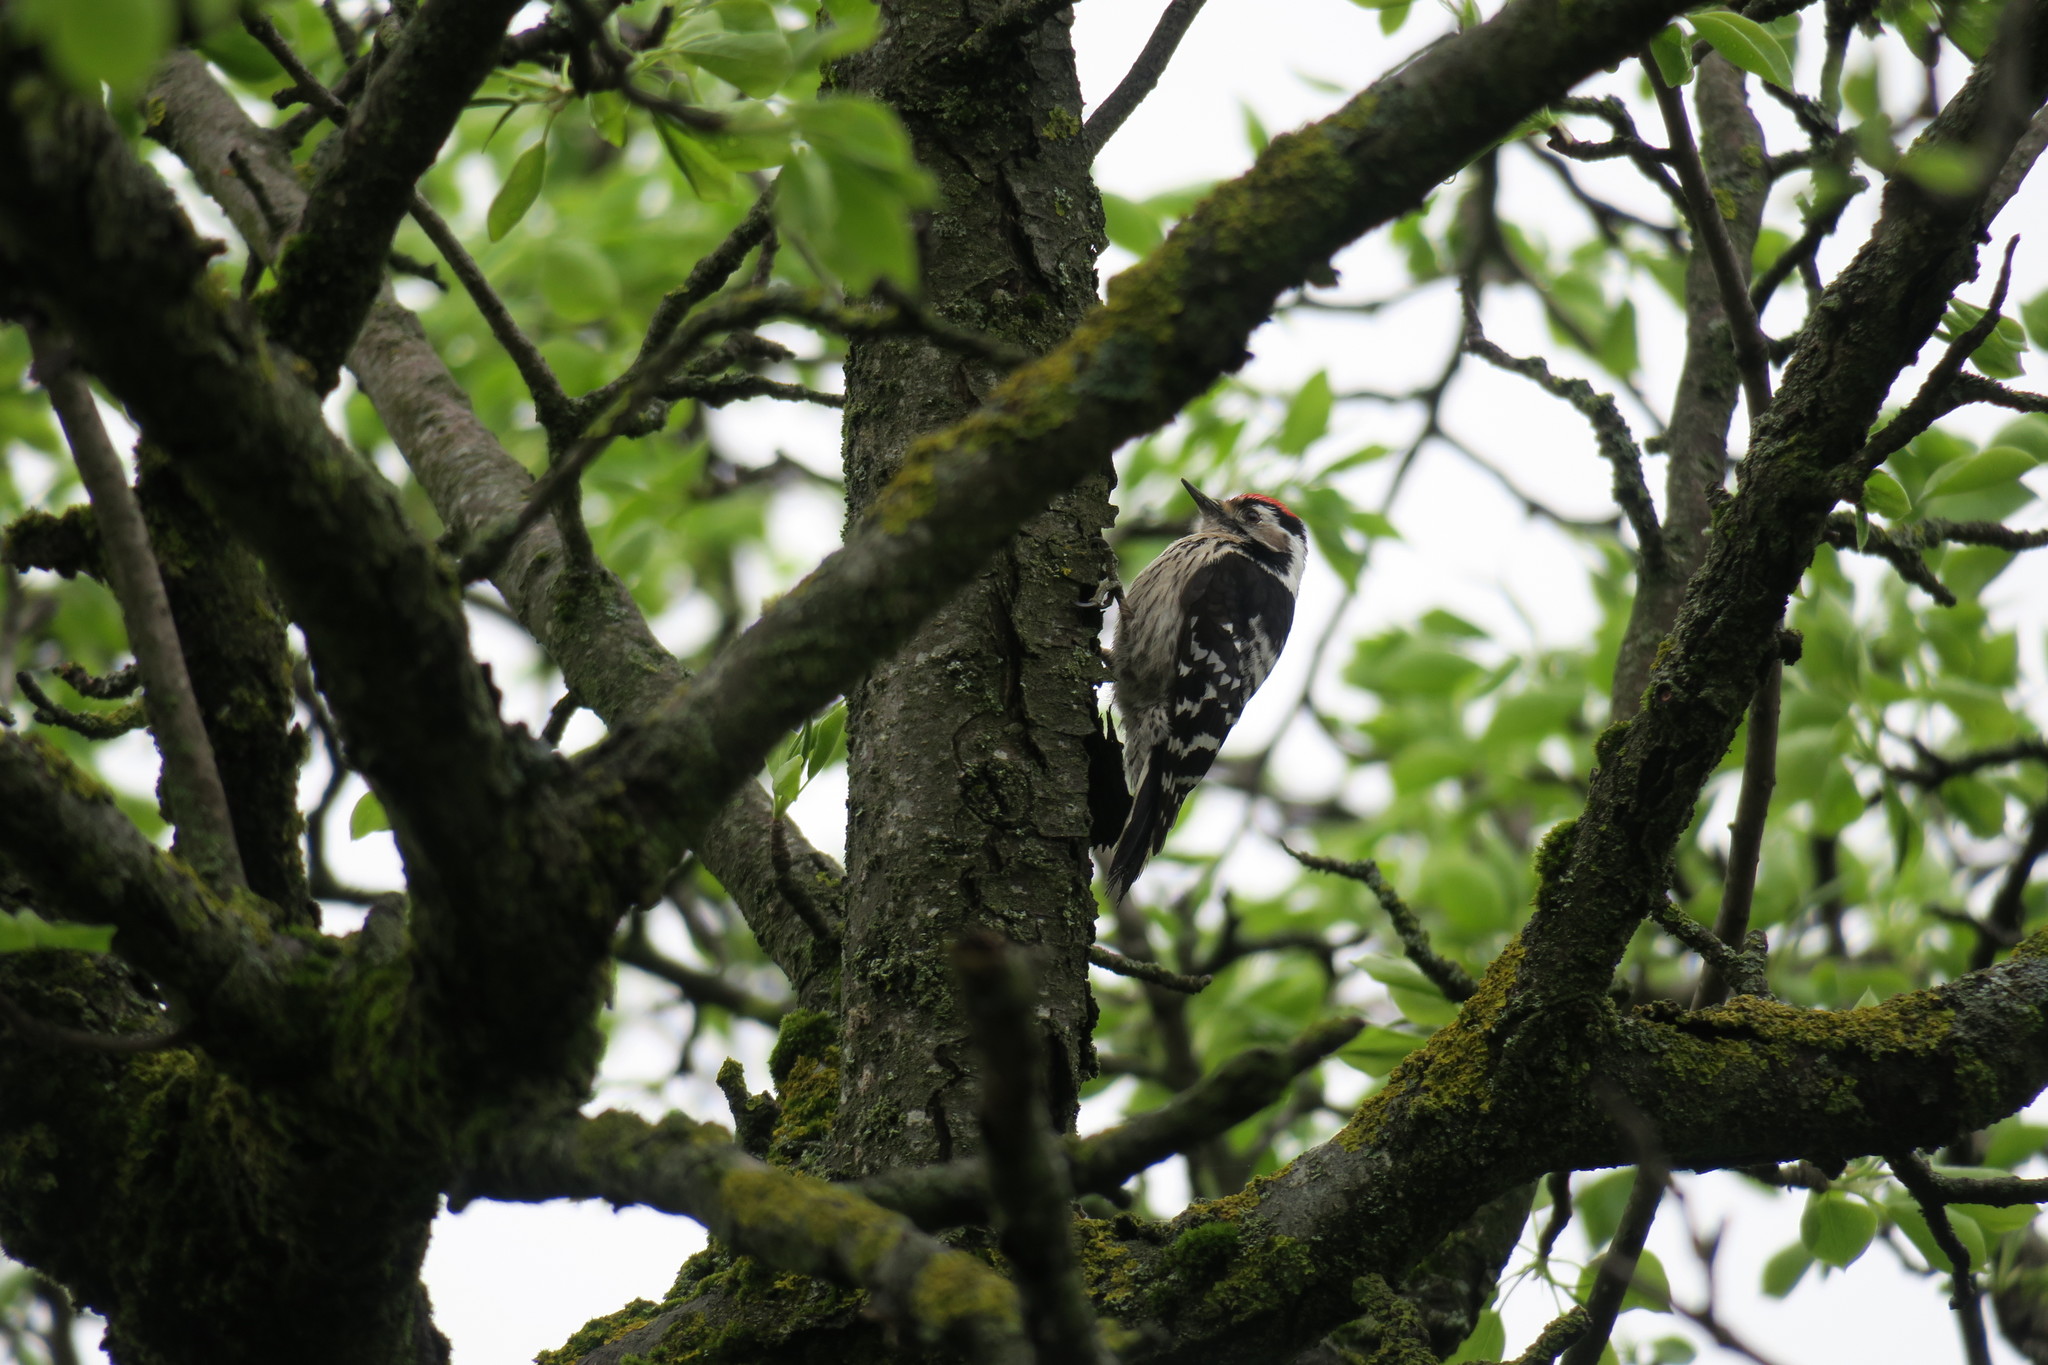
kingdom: Animalia
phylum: Chordata
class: Aves
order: Piciformes
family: Picidae
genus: Dryobates
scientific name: Dryobates minor
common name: Lesser spotted woodpecker
